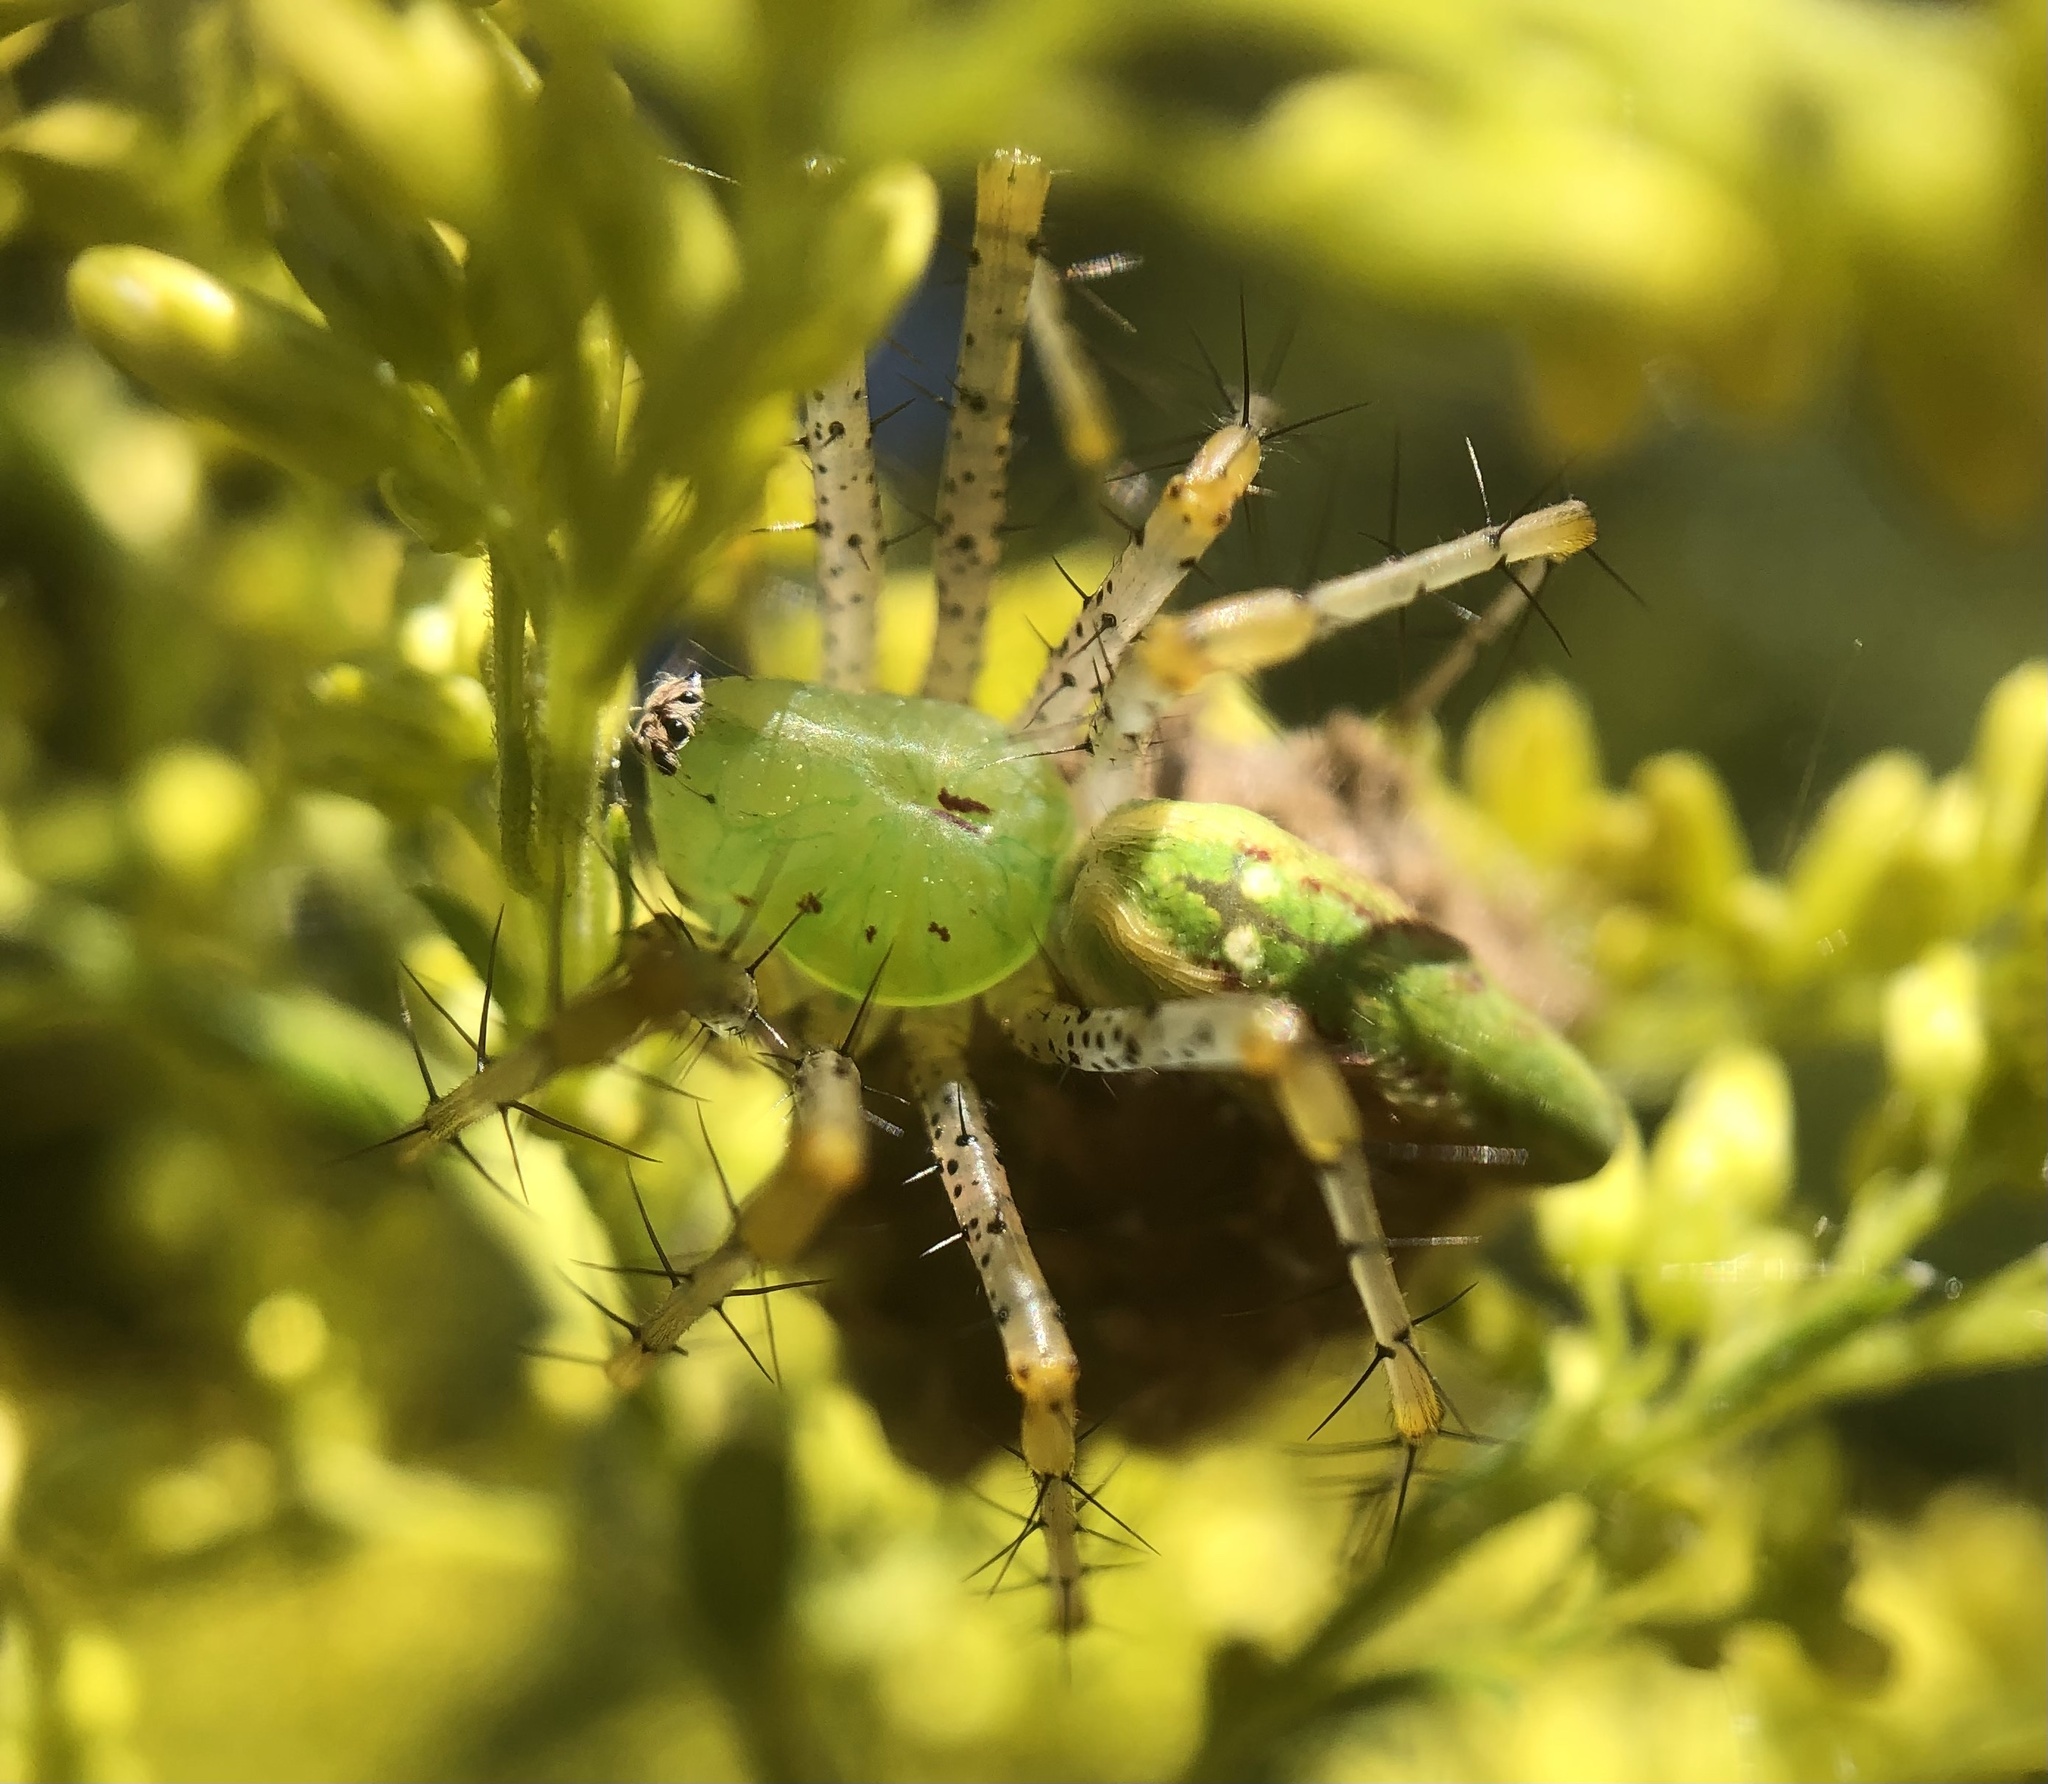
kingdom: Animalia
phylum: Arthropoda
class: Arachnida
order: Araneae
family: Oxyopidae
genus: Peucetia
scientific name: Peucetia viridans
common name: Lynx spiders
